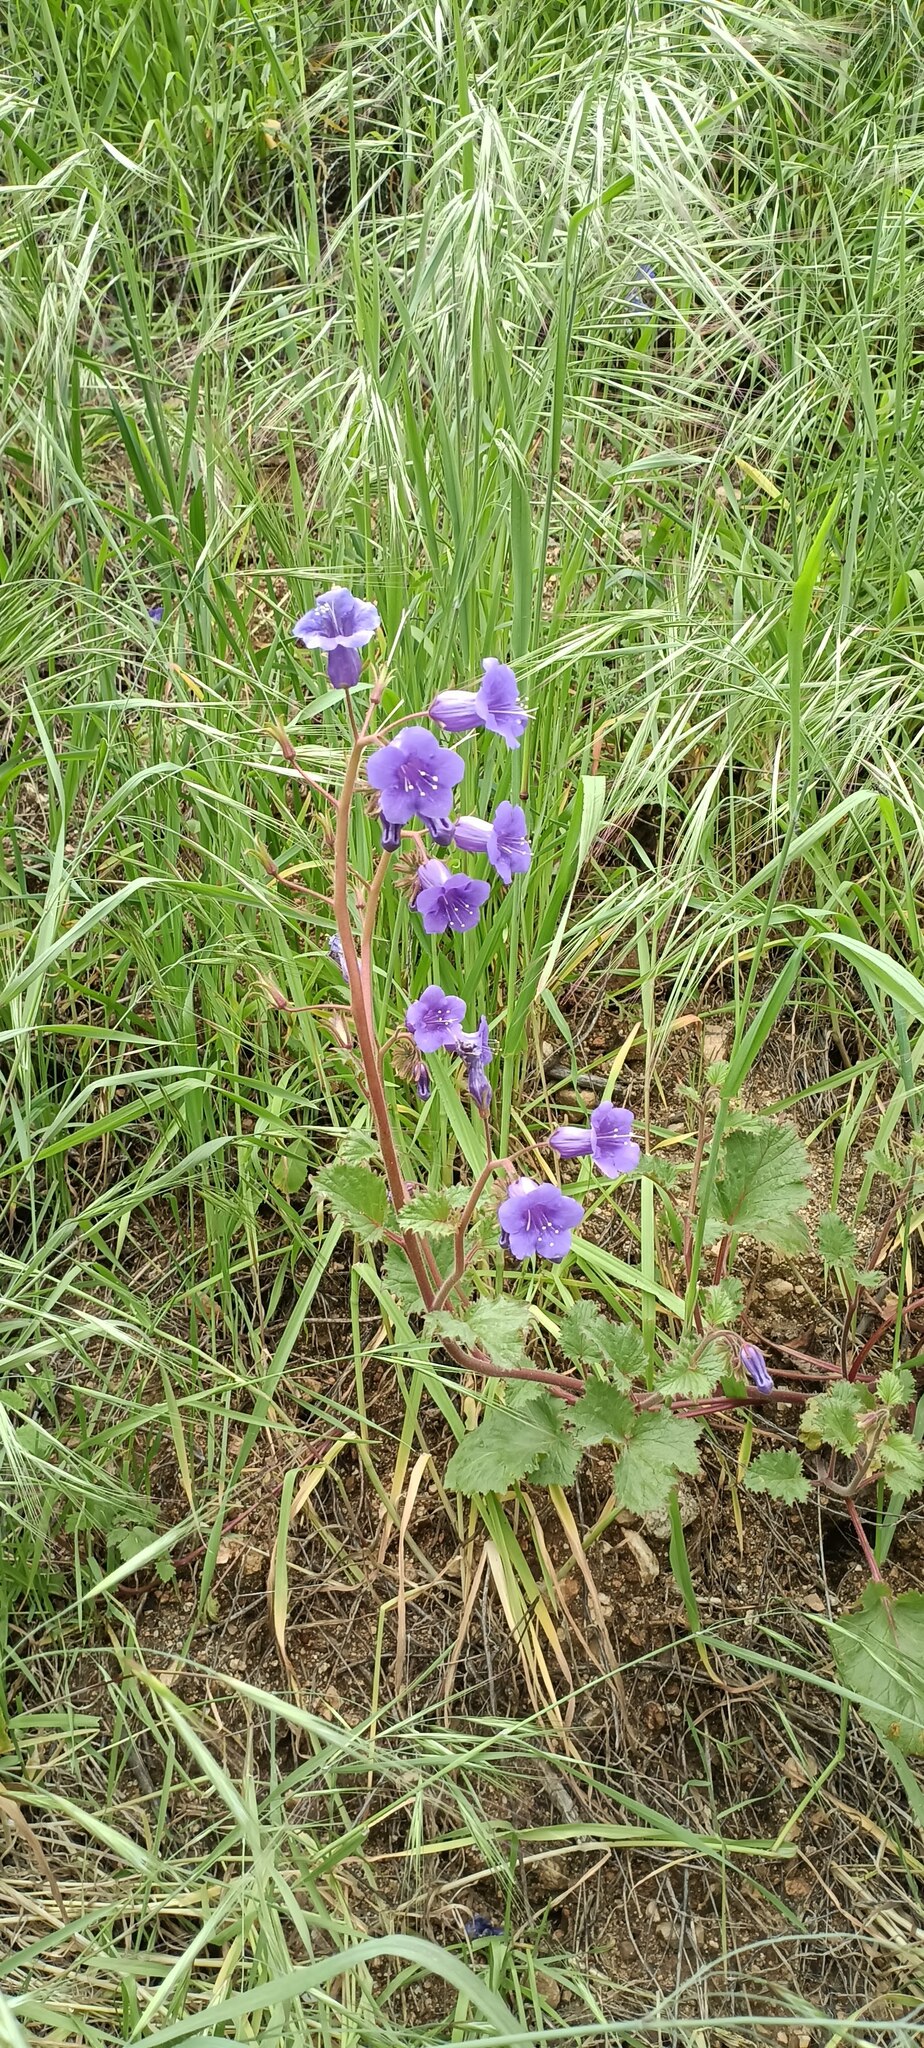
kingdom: Plantae
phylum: Tracheophyta
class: Magnoliopsida
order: Boraginales
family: Hydrophyllaceae
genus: Phacelia
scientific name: Phacelia minor
